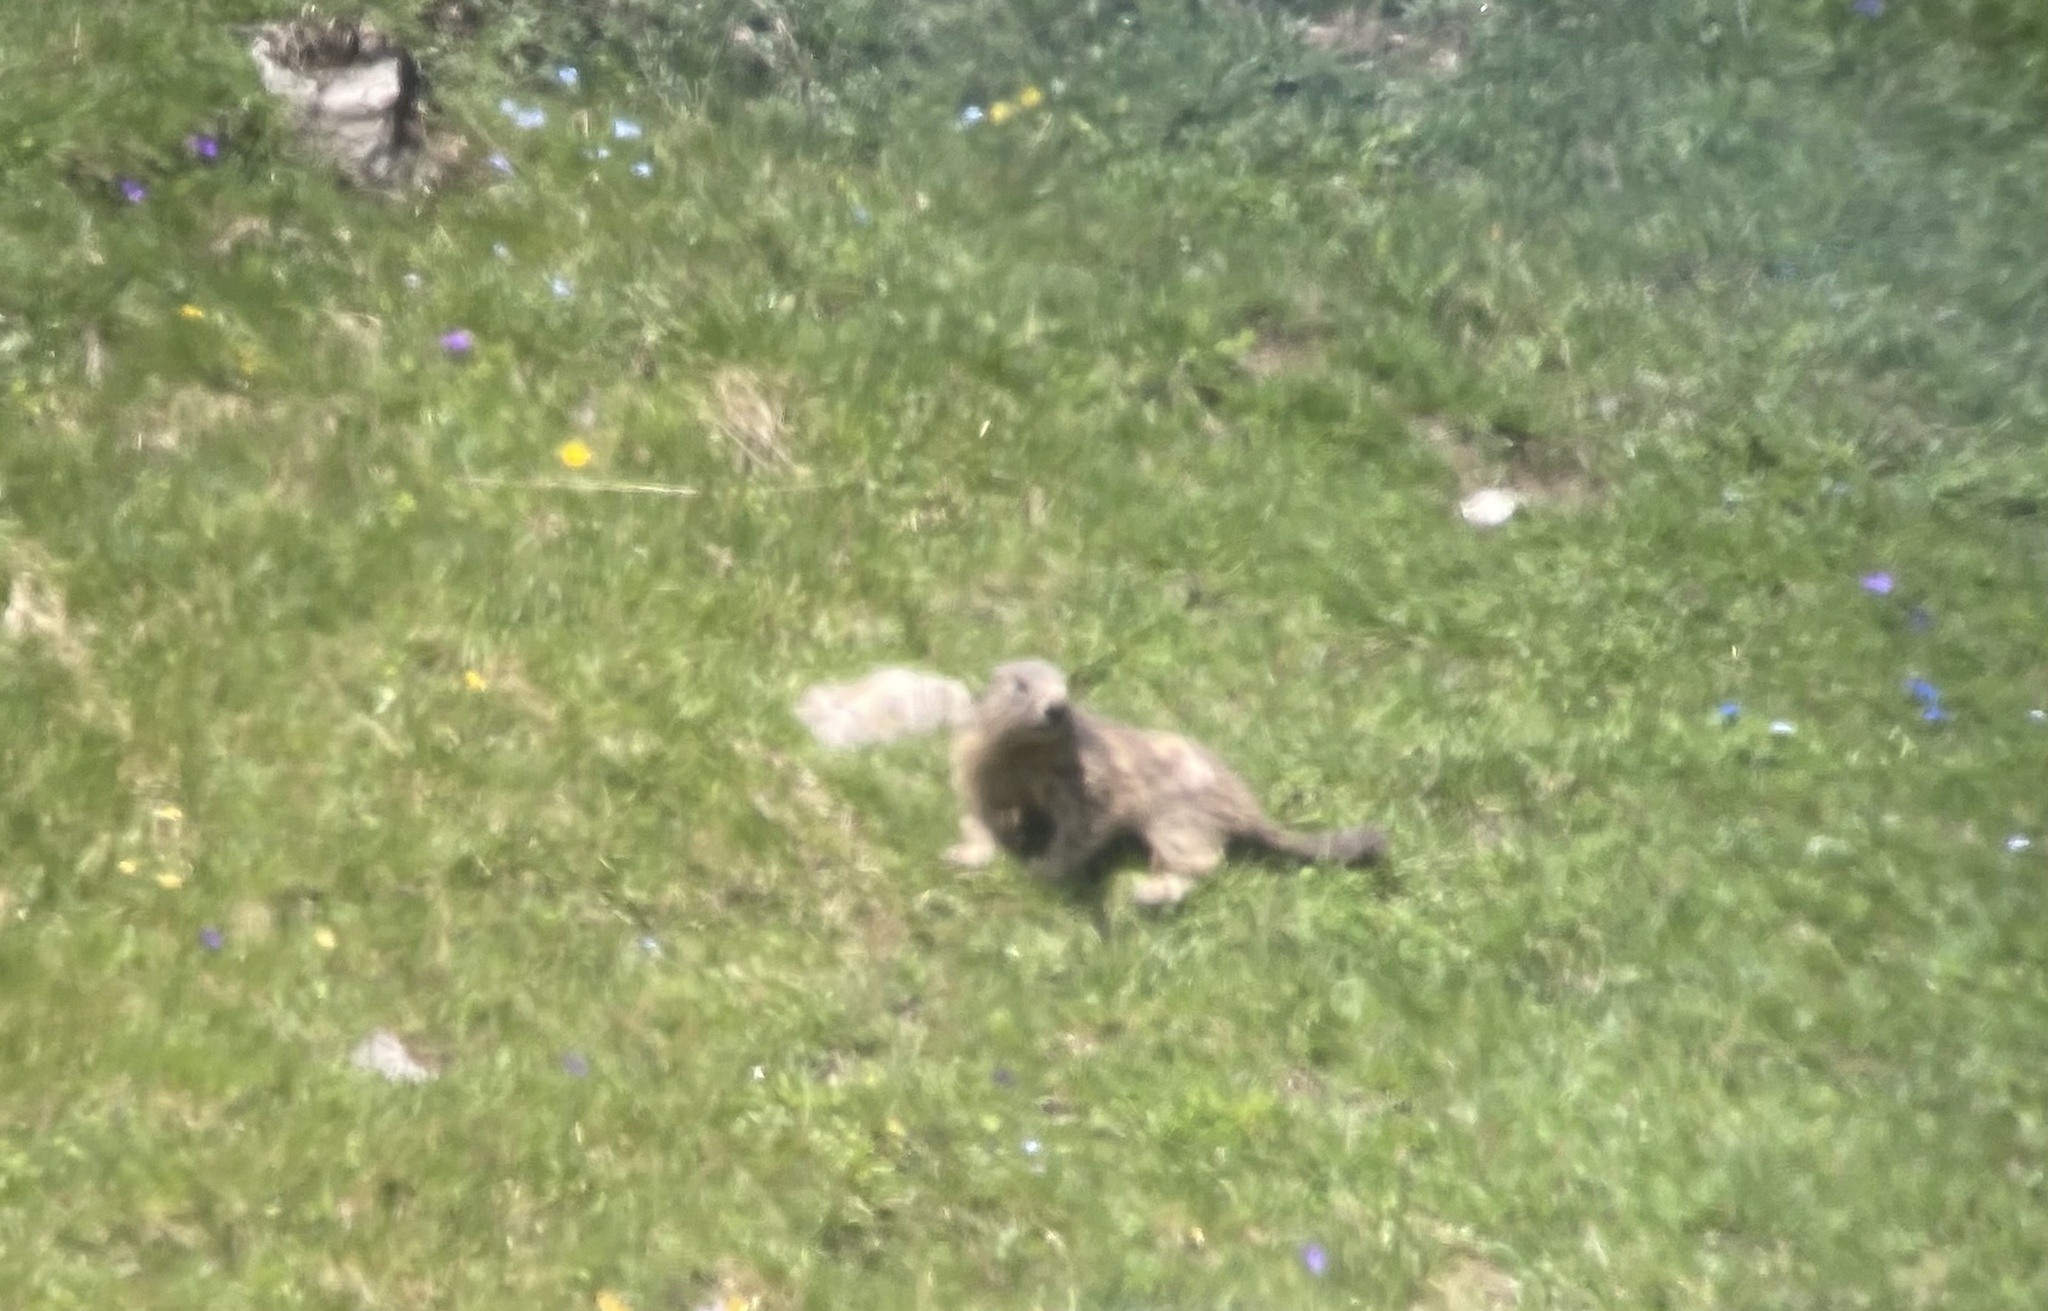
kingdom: Animalia
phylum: Chordata
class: Mammalia
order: Rodentia
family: Sciuridae
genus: Marmota
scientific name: Marmota marmota
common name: Alpine marmot
